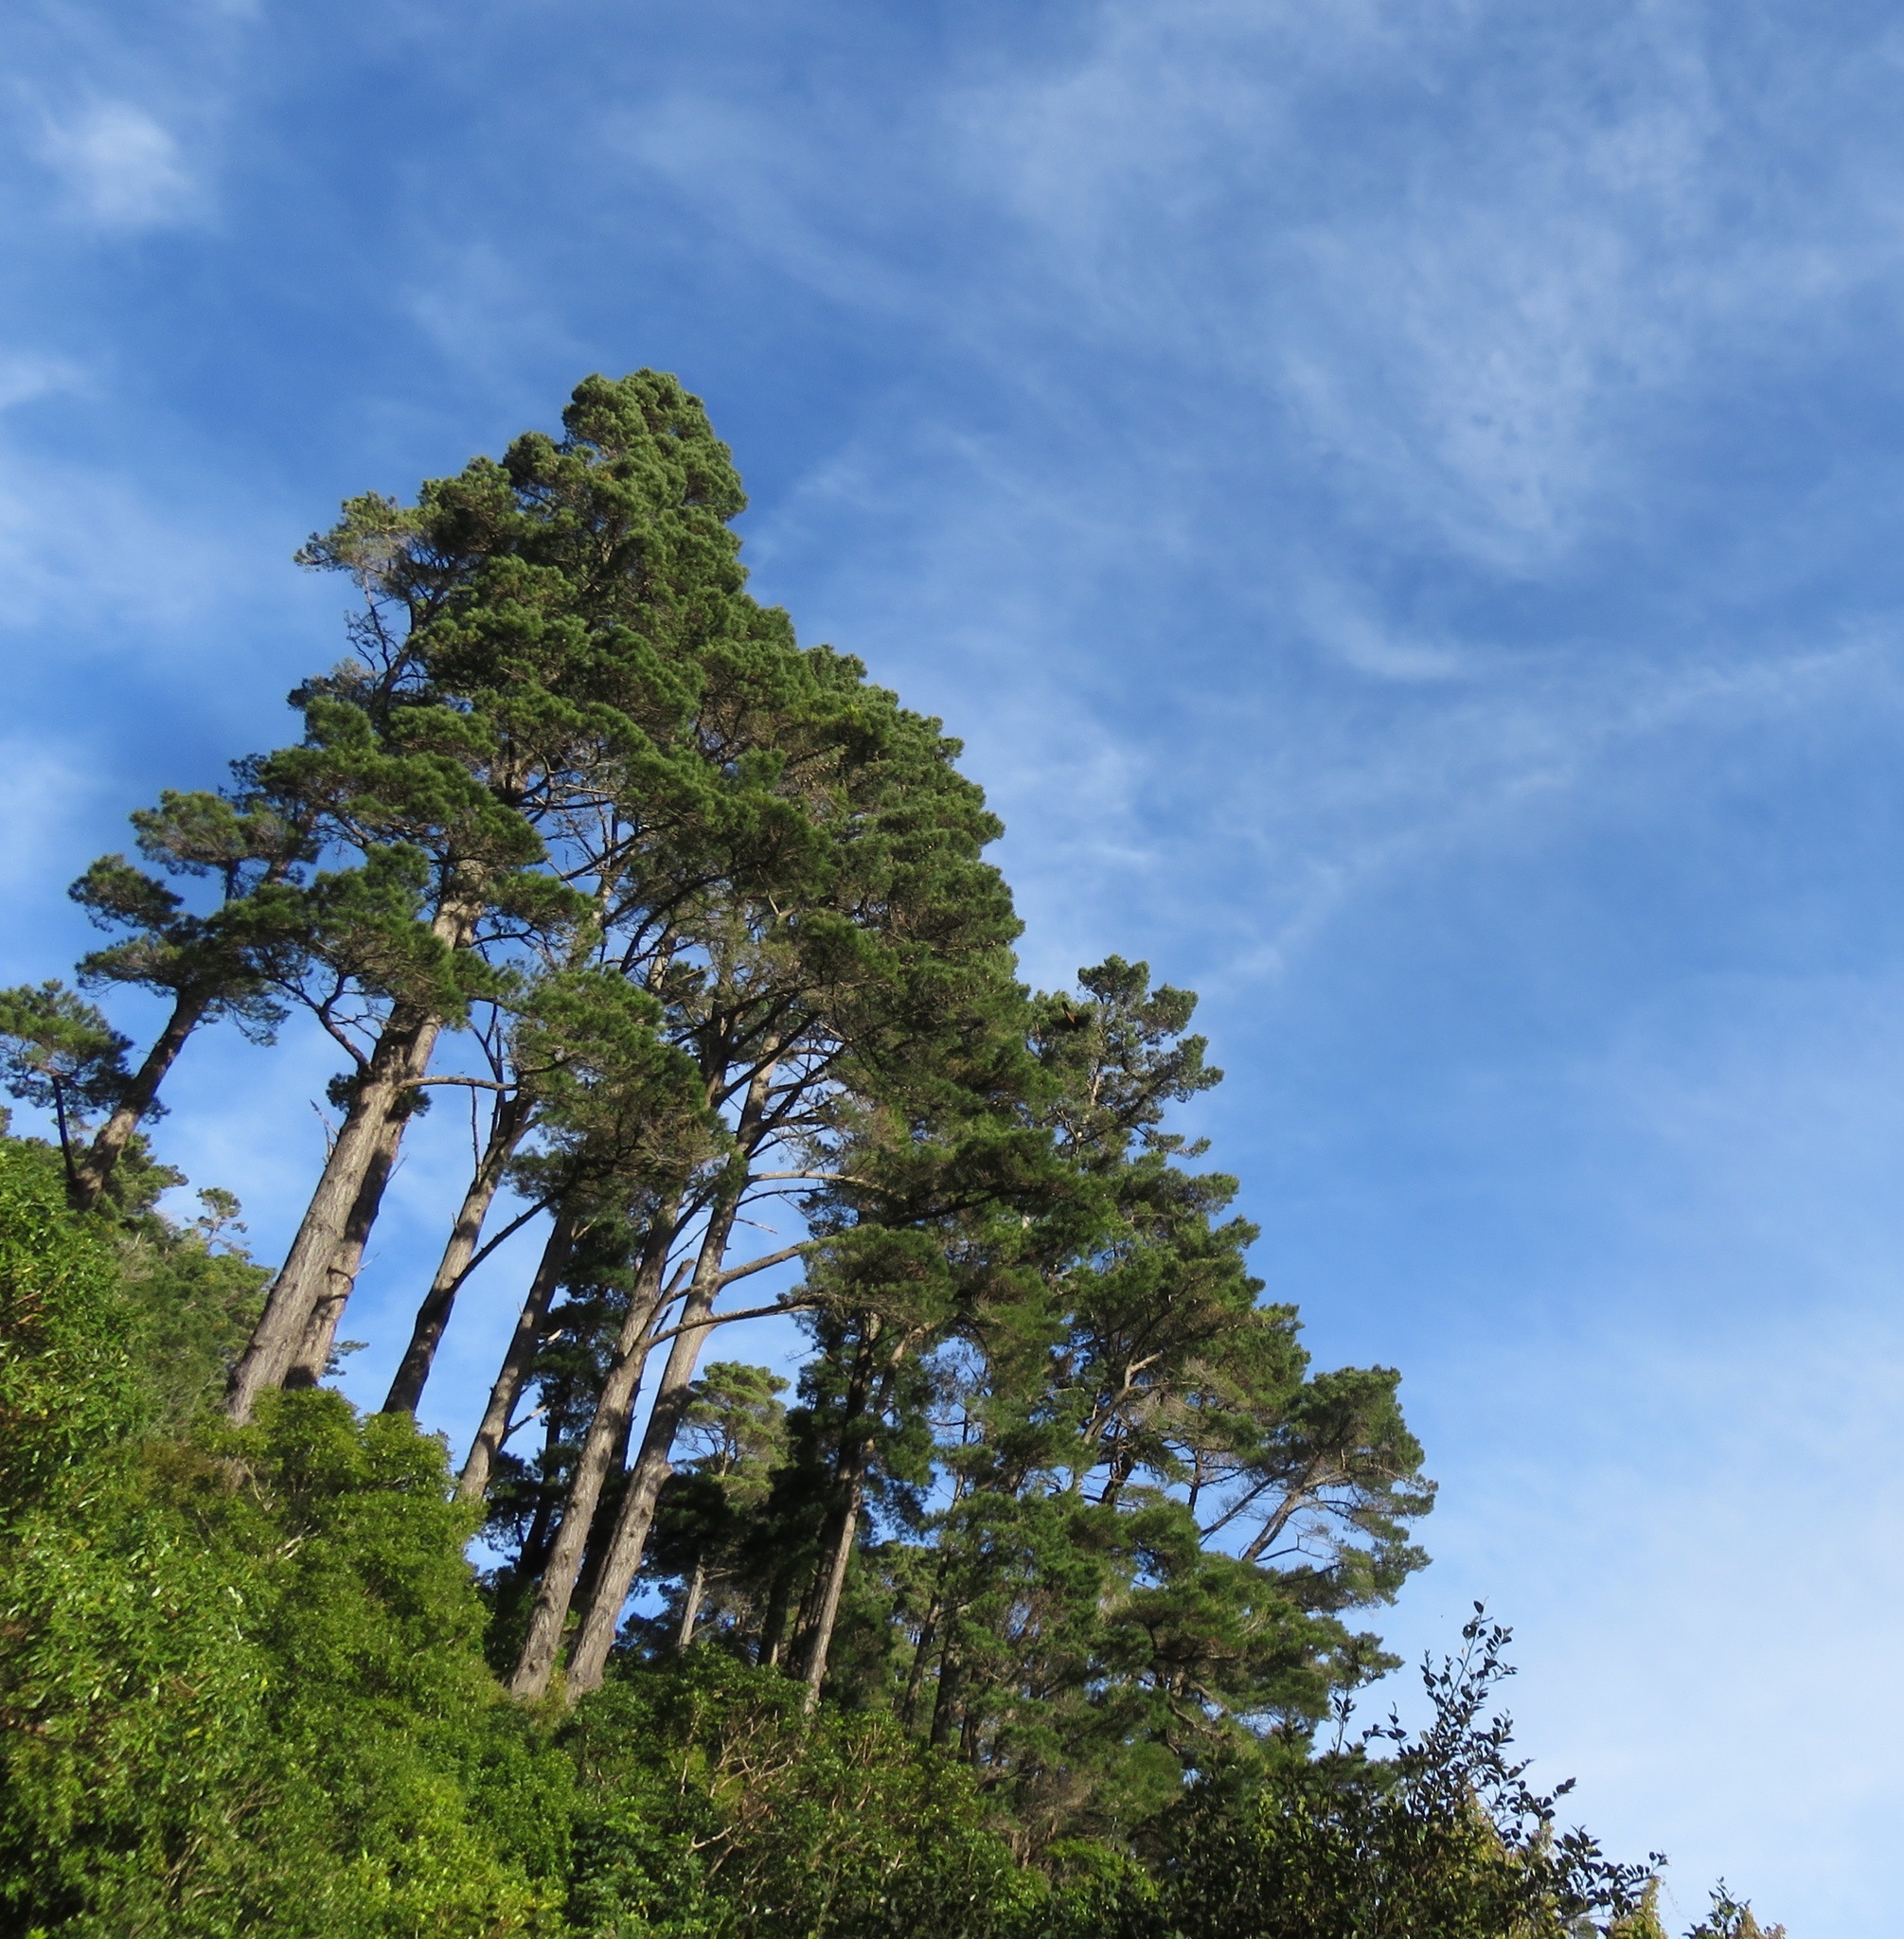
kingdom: Animalia
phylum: Chordata
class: Aves
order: Falconiformes
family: Falconidae
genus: Falco
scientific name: Falco novaeseelandiae
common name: New zealand falcon
